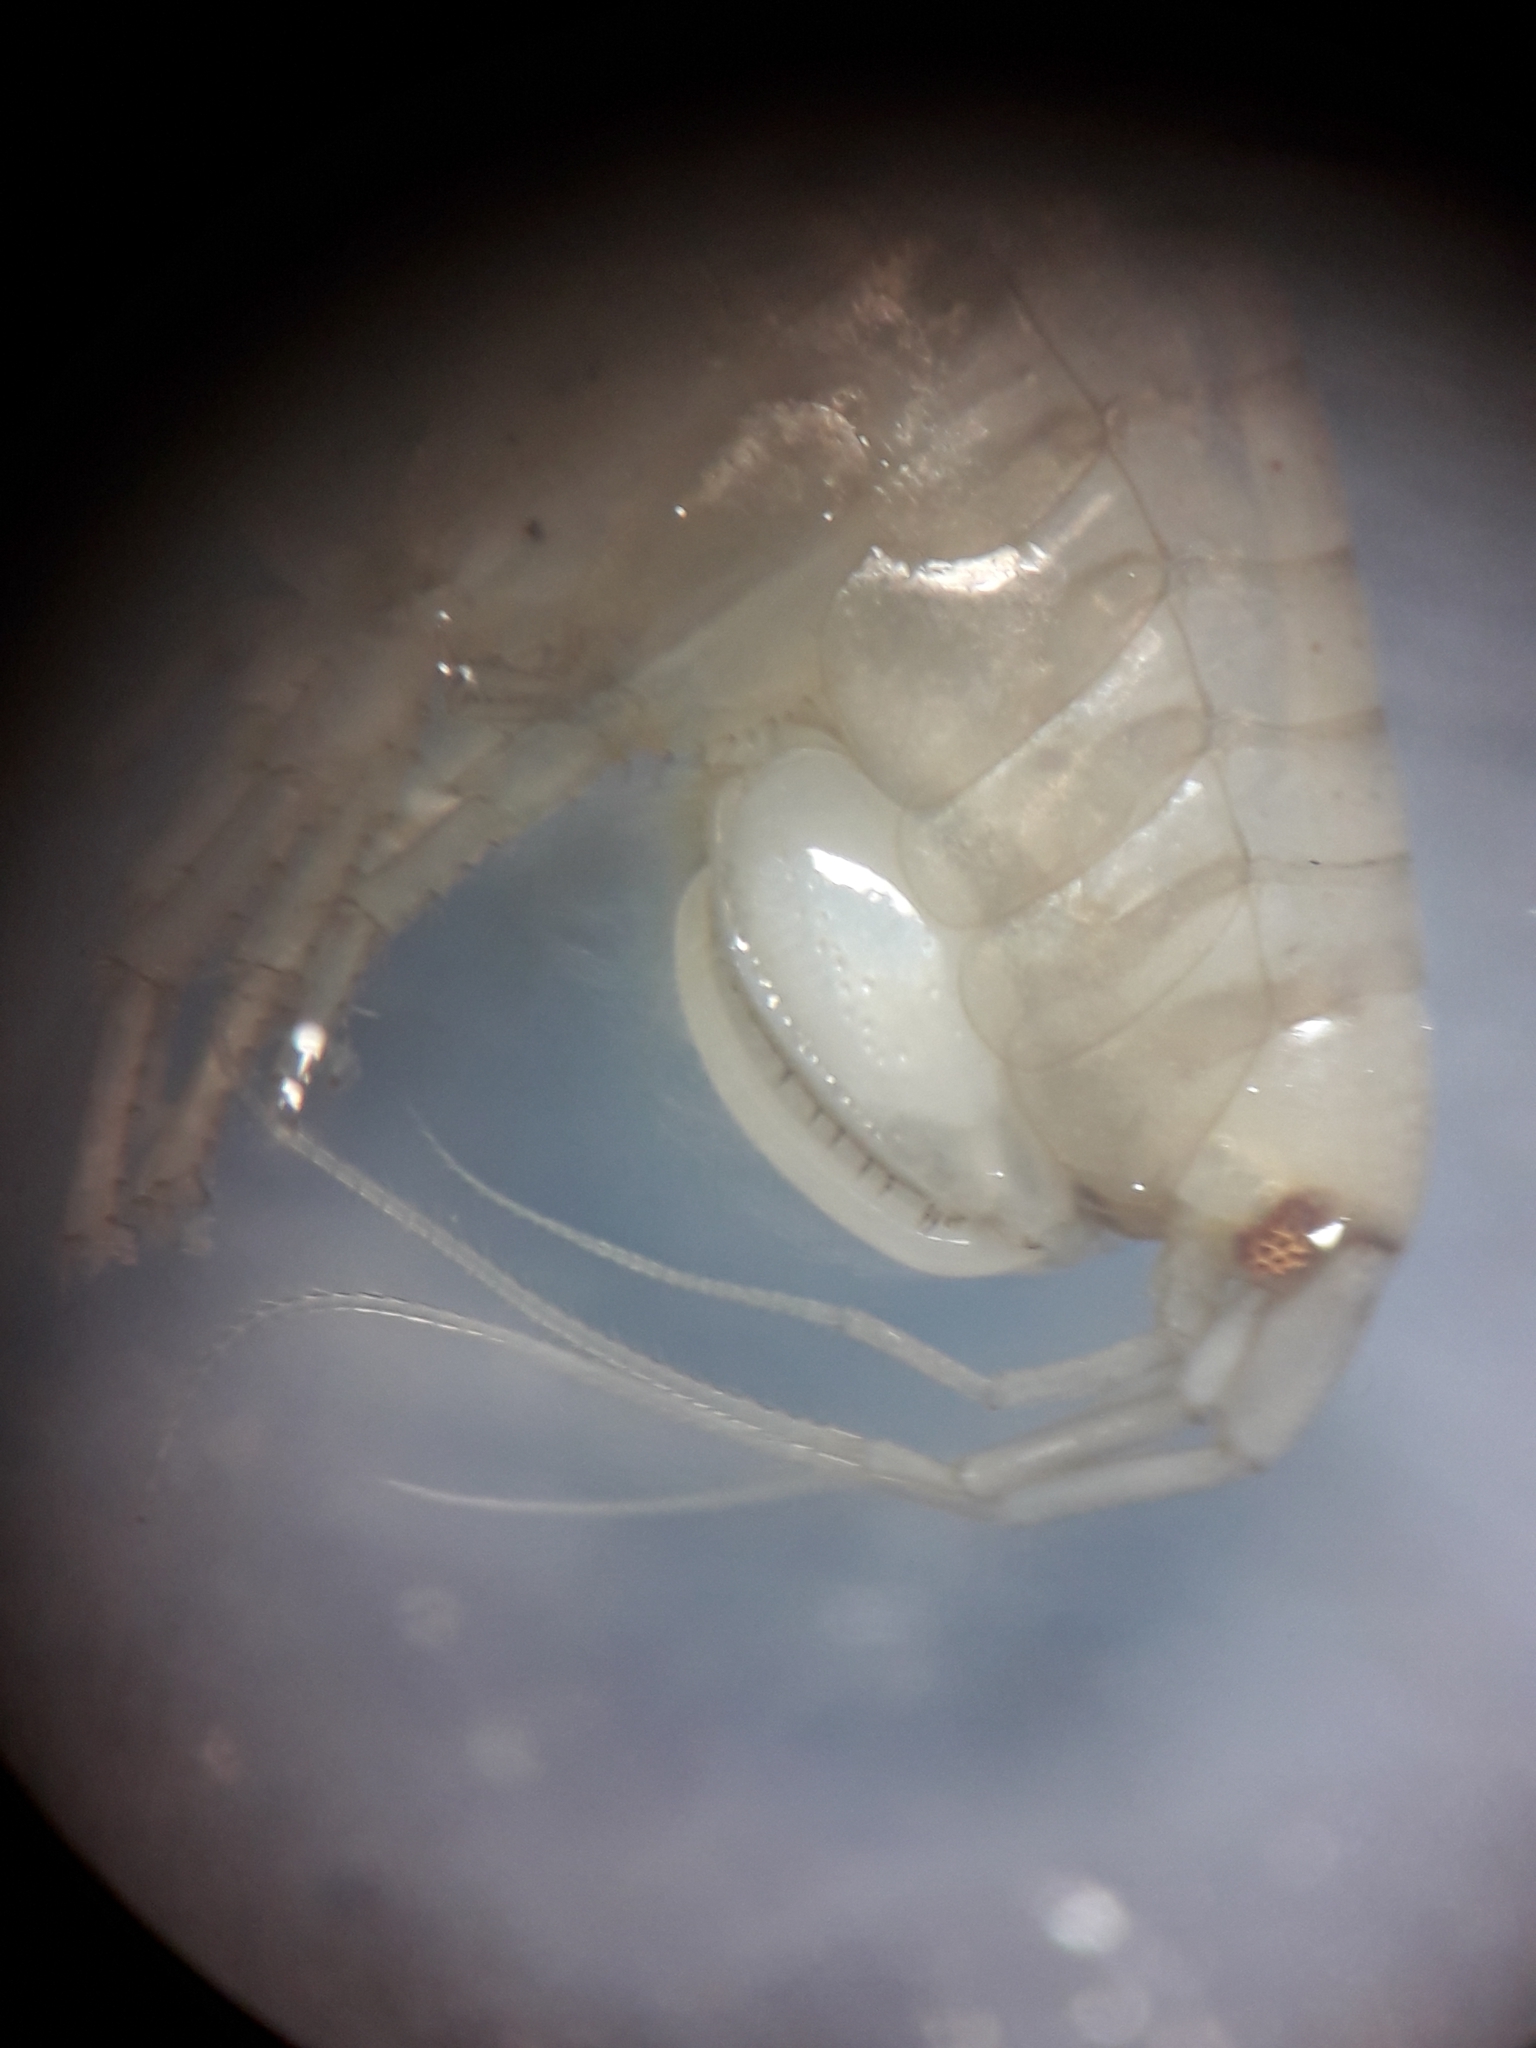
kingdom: Animalia
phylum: Arthropoda
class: Malacostraca
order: Amphipoda
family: Nuuanuidae
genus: Gammarella
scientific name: Gammarella fucicola
